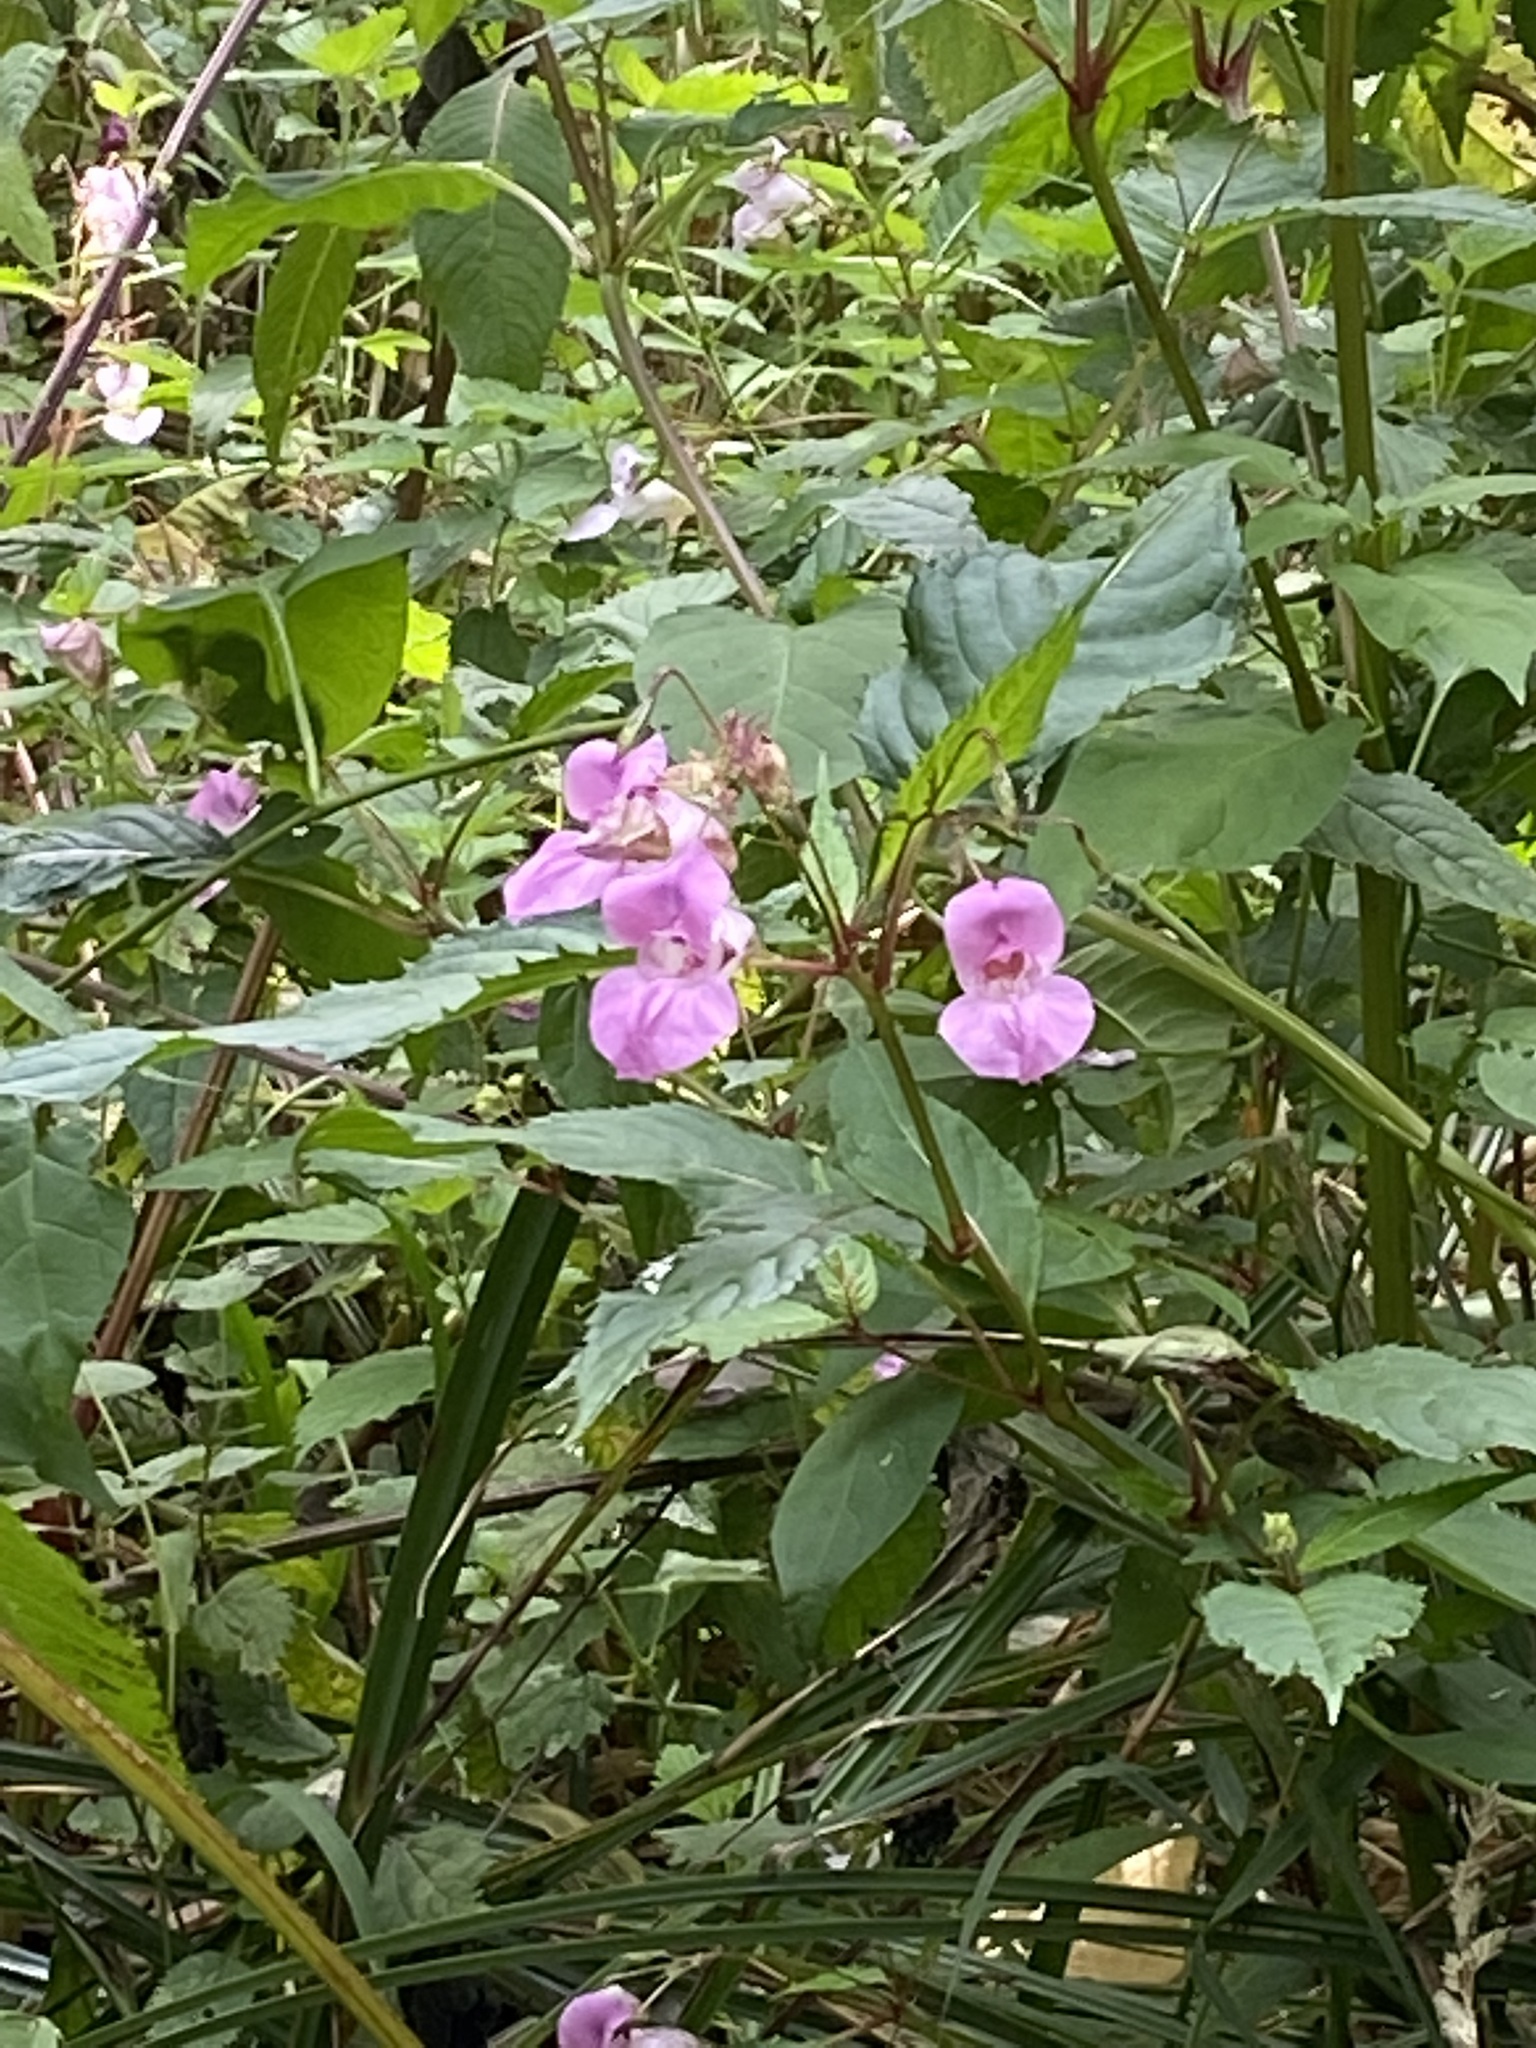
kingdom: Plantae
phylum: Tracheophyta
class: Magnoliopsida
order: Ericales
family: Balsaminaceae
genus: Impatiens
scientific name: Impatiens glandulifera
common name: Himalayan balsam
